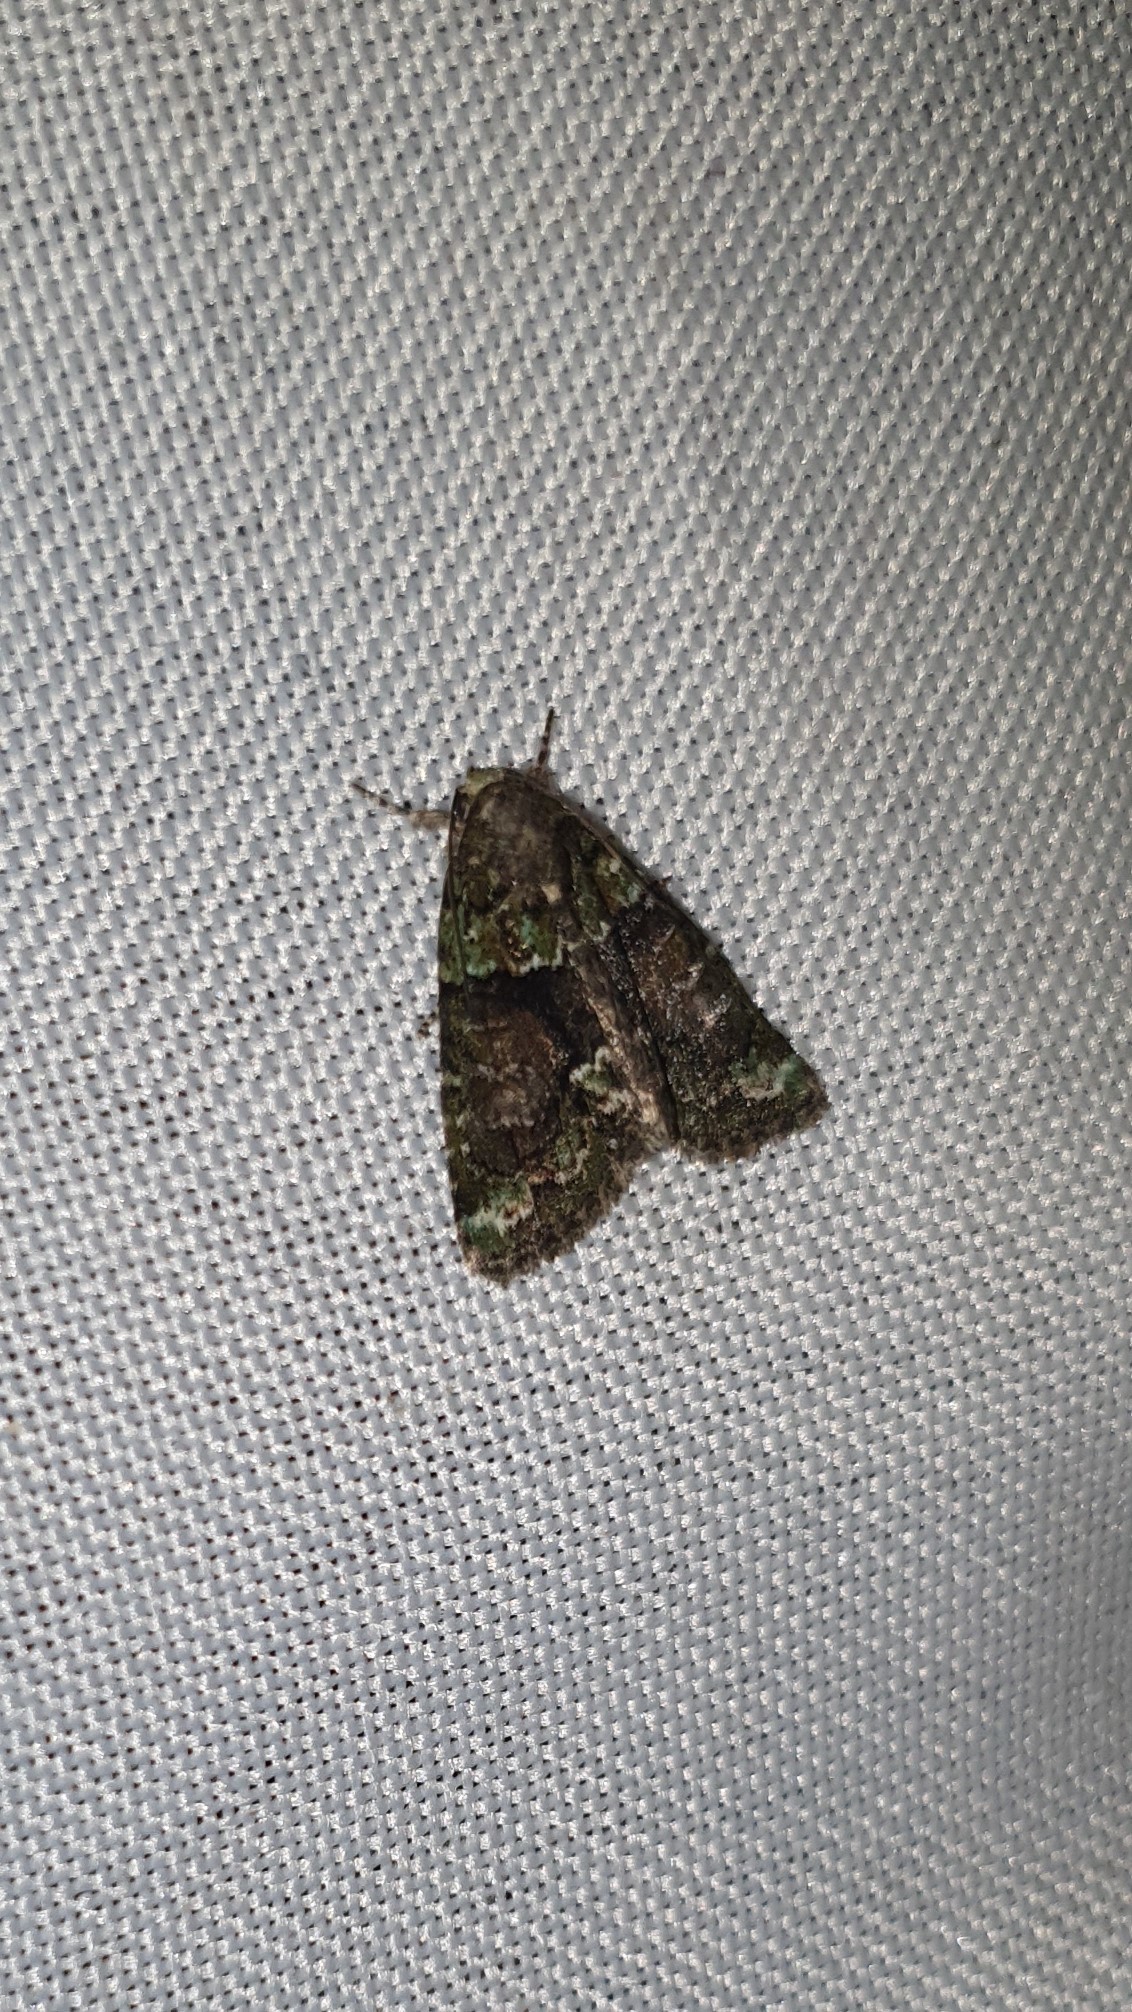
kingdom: Animalia
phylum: Arthropoda
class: Insecta
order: Lepidoptera
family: Noctuidae
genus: Cryphia
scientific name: Cryphia algae
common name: Tree-lichen beauty
